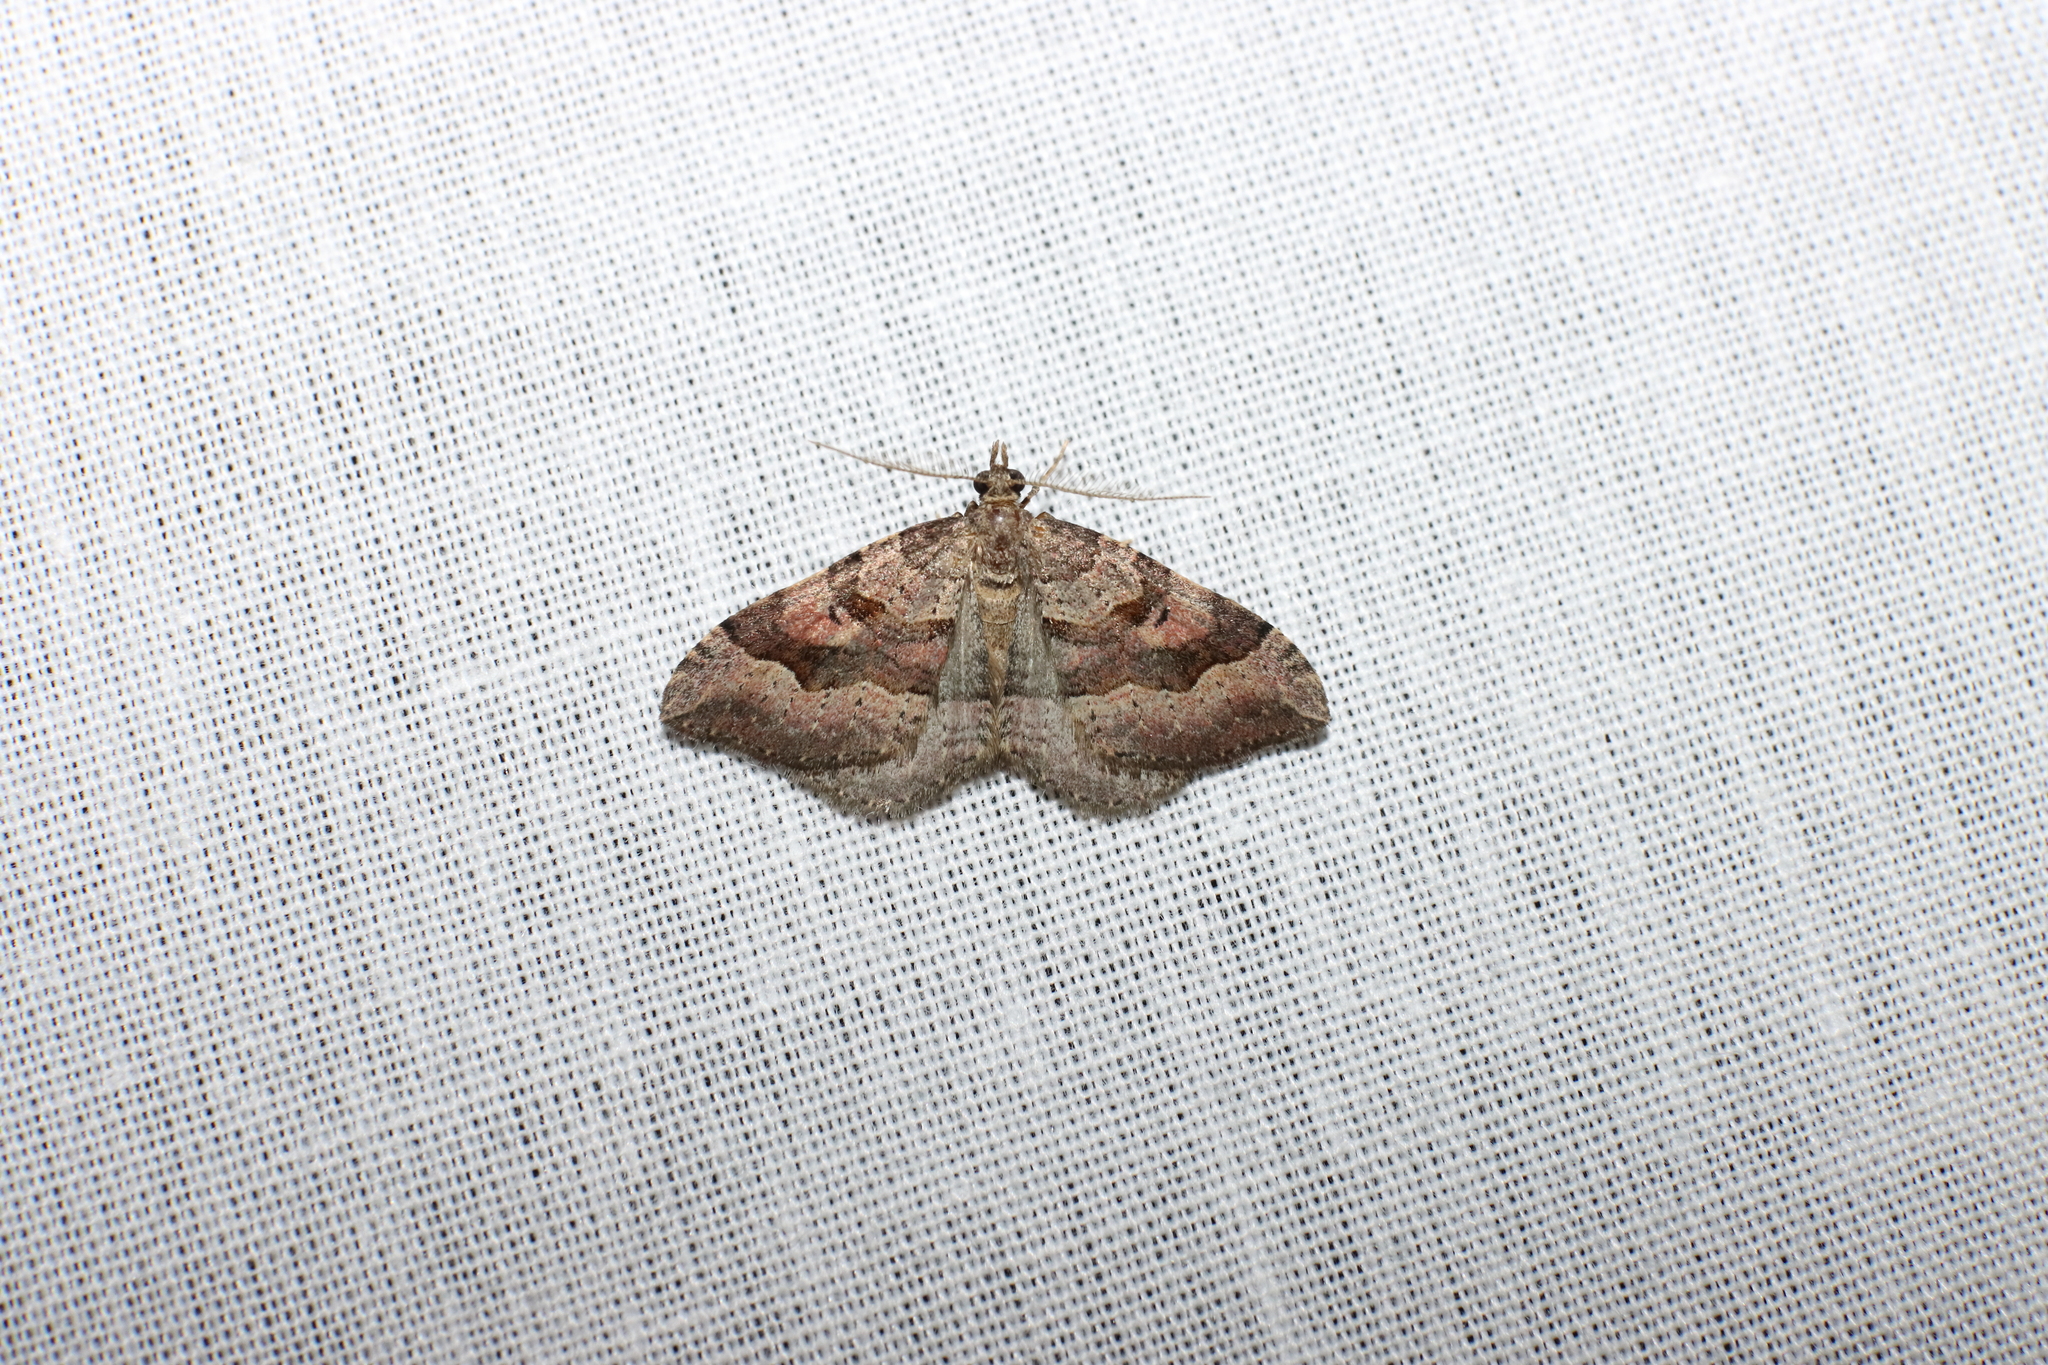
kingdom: Animalia
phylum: Arthropoda
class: Insecta
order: Lepidoptera
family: Geometridae
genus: Epyaxa
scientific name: Epyaxa rosearia
